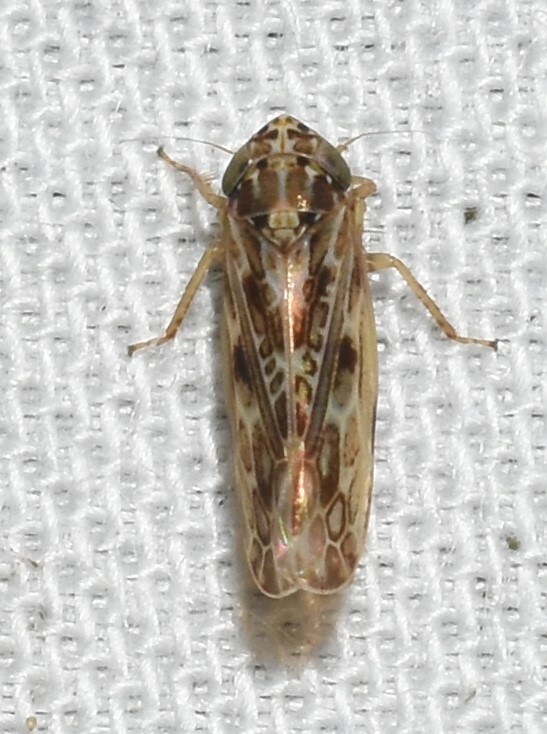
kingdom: Animalia
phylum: Arthropoda
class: Insecta
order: Hemiptera
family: Cicadellidae
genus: Endria
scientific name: Endria inimicus
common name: Painted leafhopper
